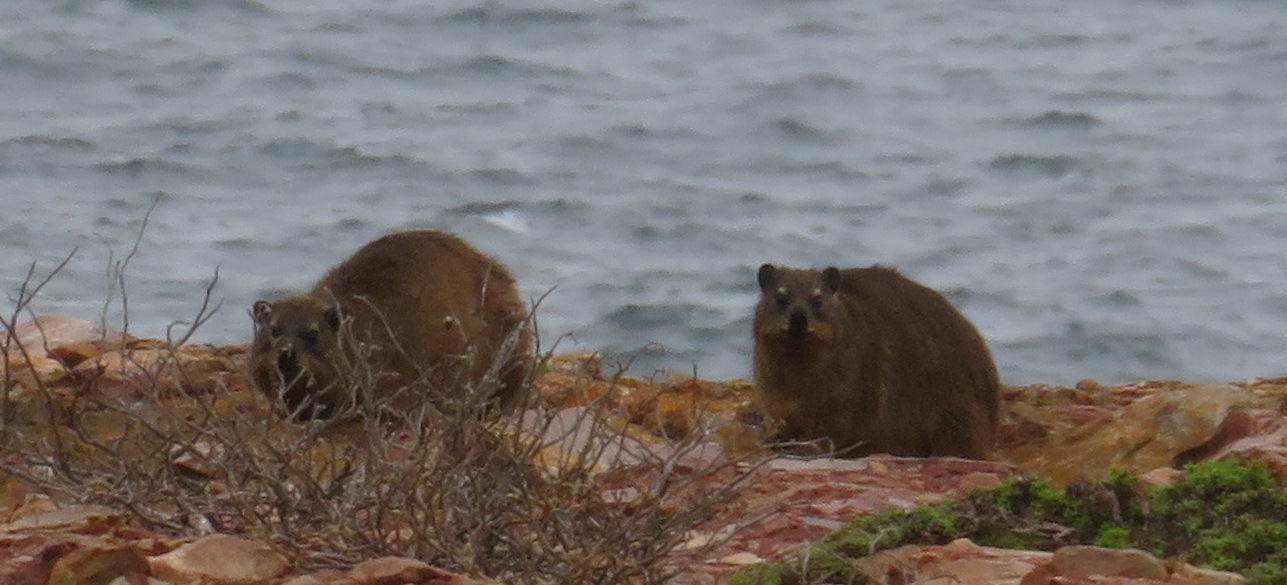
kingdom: Animalia
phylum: Chordata
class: Mammalia
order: Hyracoidea
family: Procaviidae
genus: Procavia
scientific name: Procavia capensis
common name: Rock hyrax
